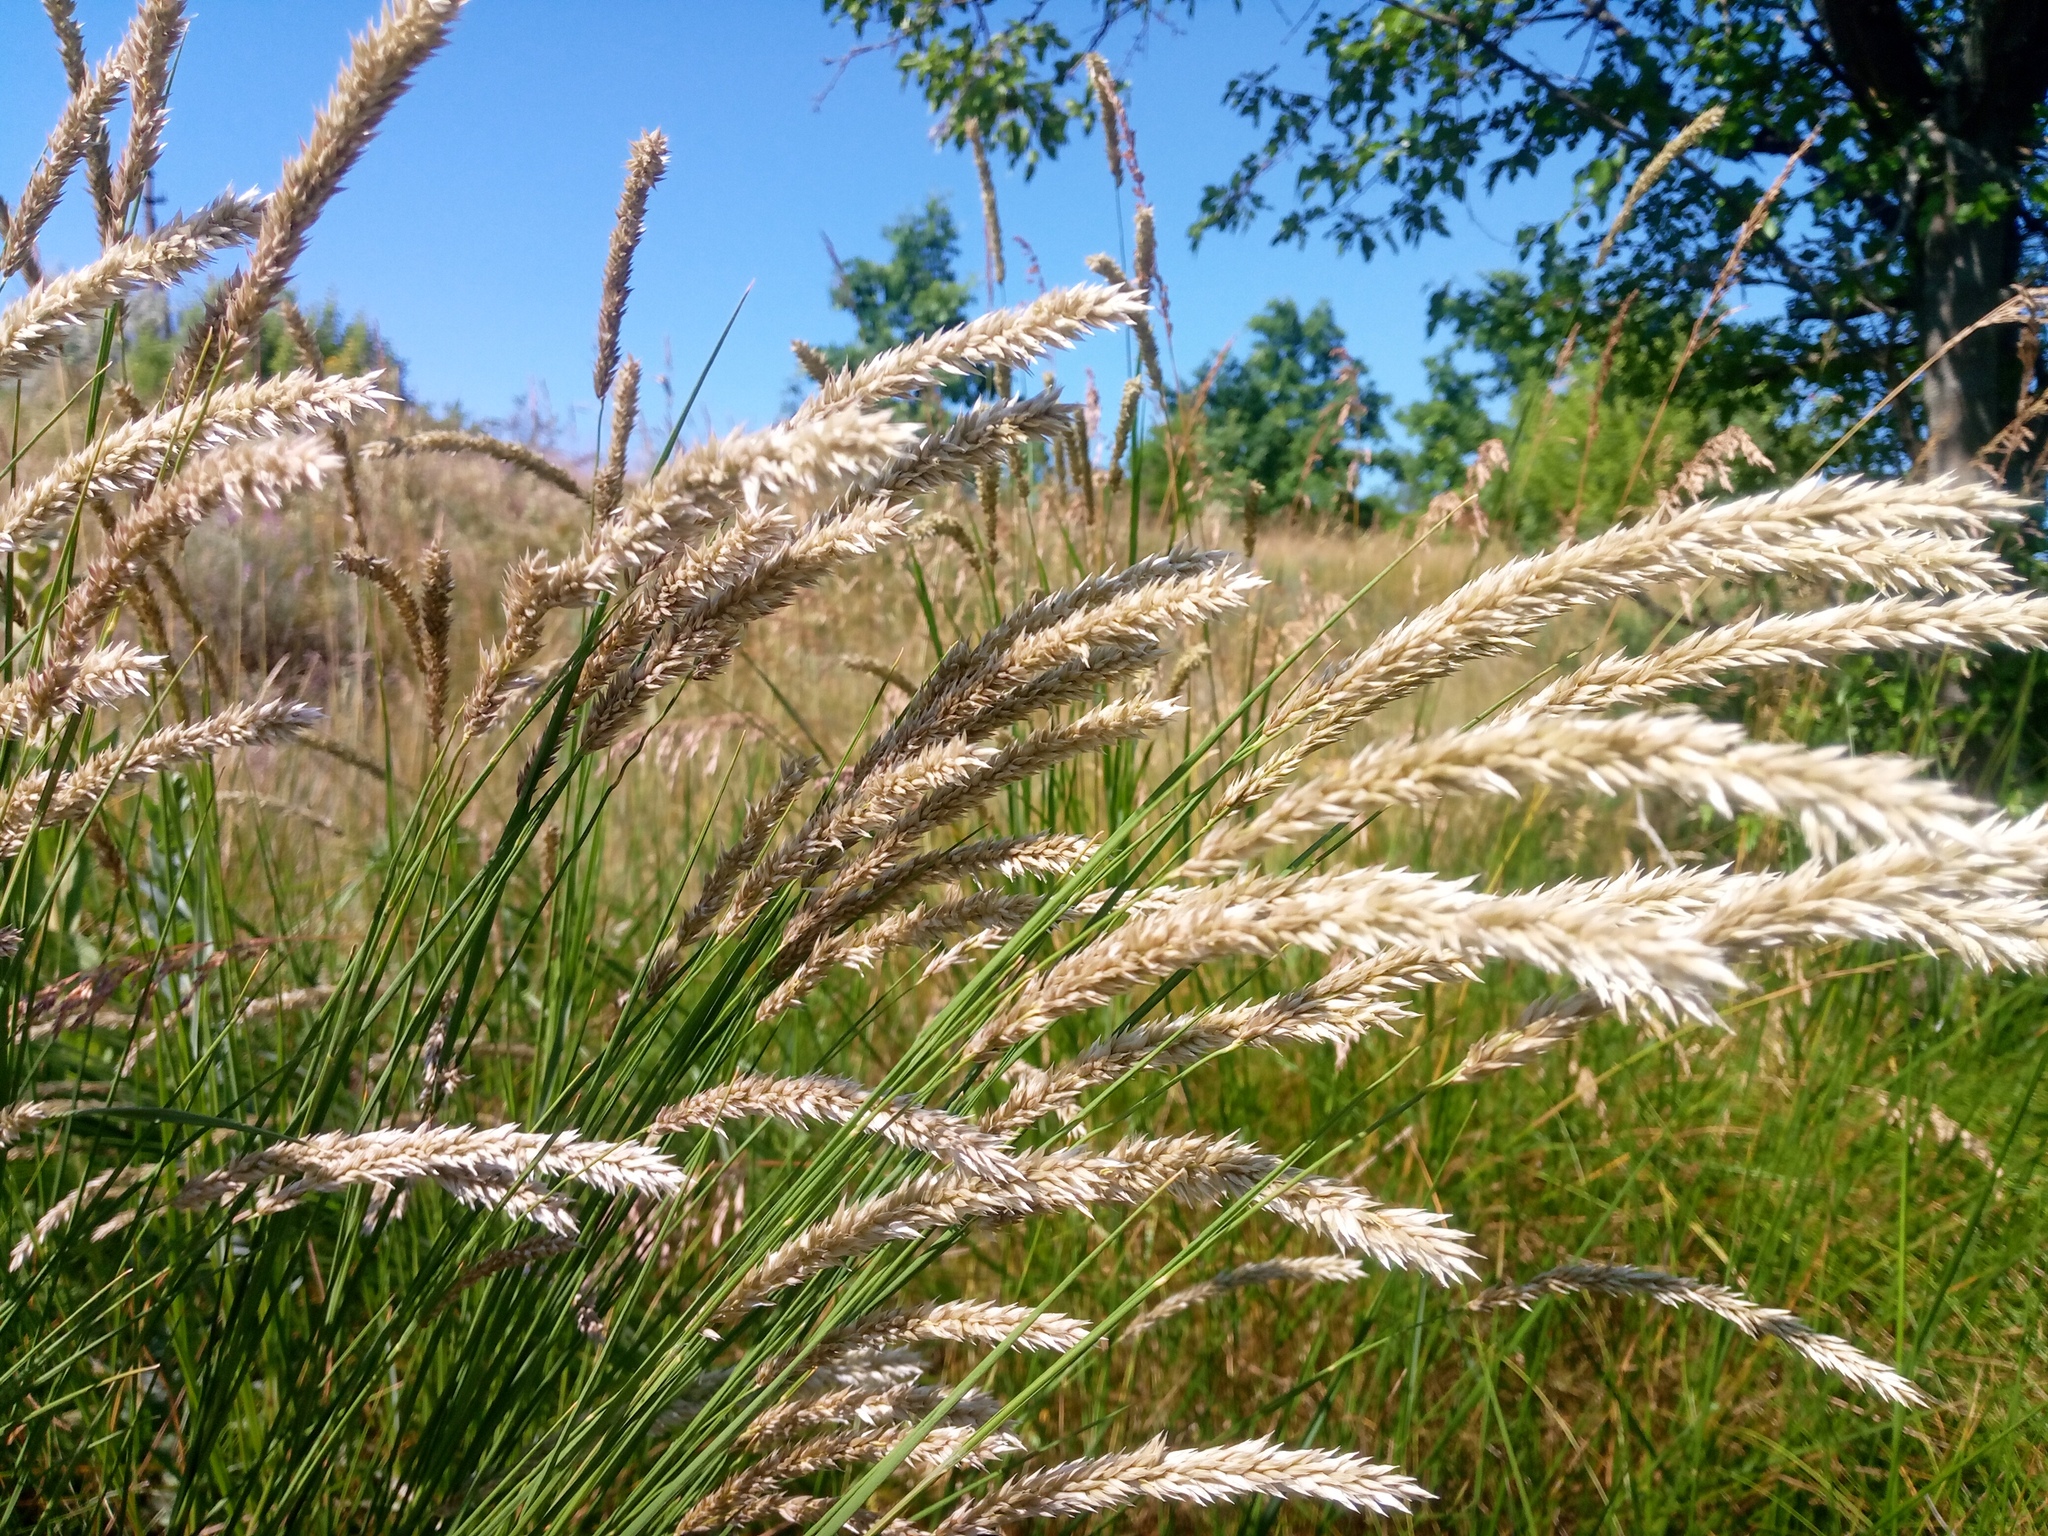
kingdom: Plantae
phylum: Tracheophyta
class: Liliopsida
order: Poales
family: Poaceae
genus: Melica
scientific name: Melica transsilvanica
